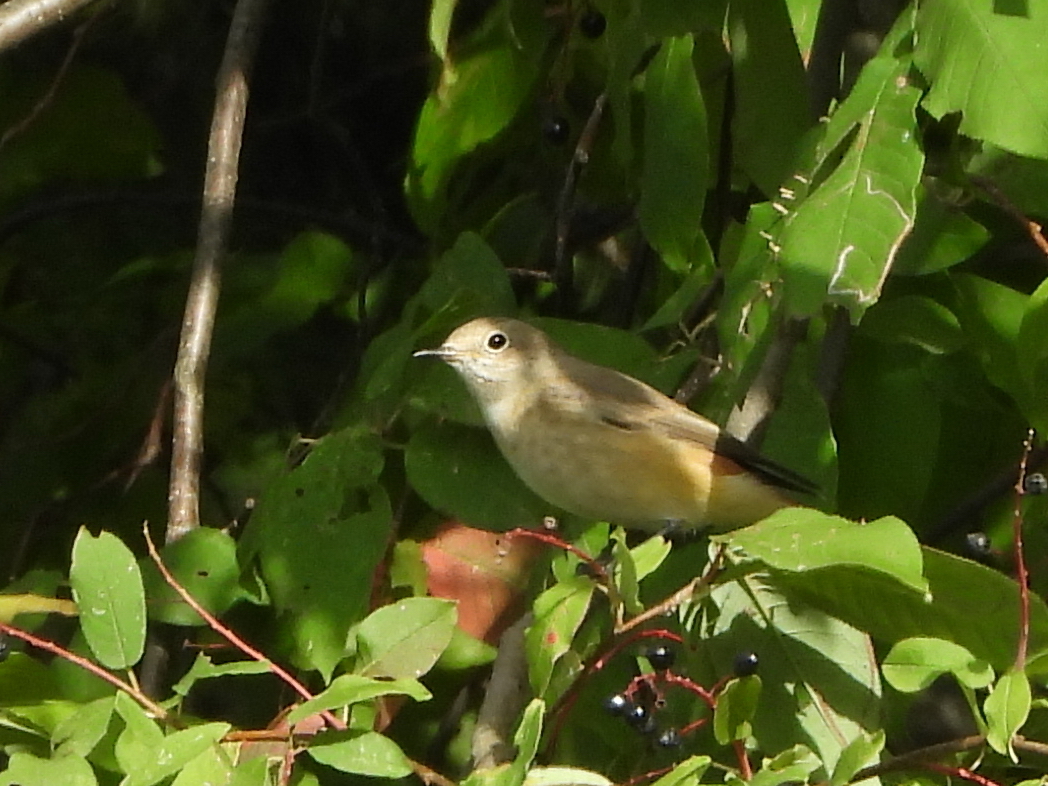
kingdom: Animalia
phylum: Chordata
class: Aves
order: Passeriformes
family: Sylviidae
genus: Sylvia
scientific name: Sylvia borin
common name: Garden warbler
